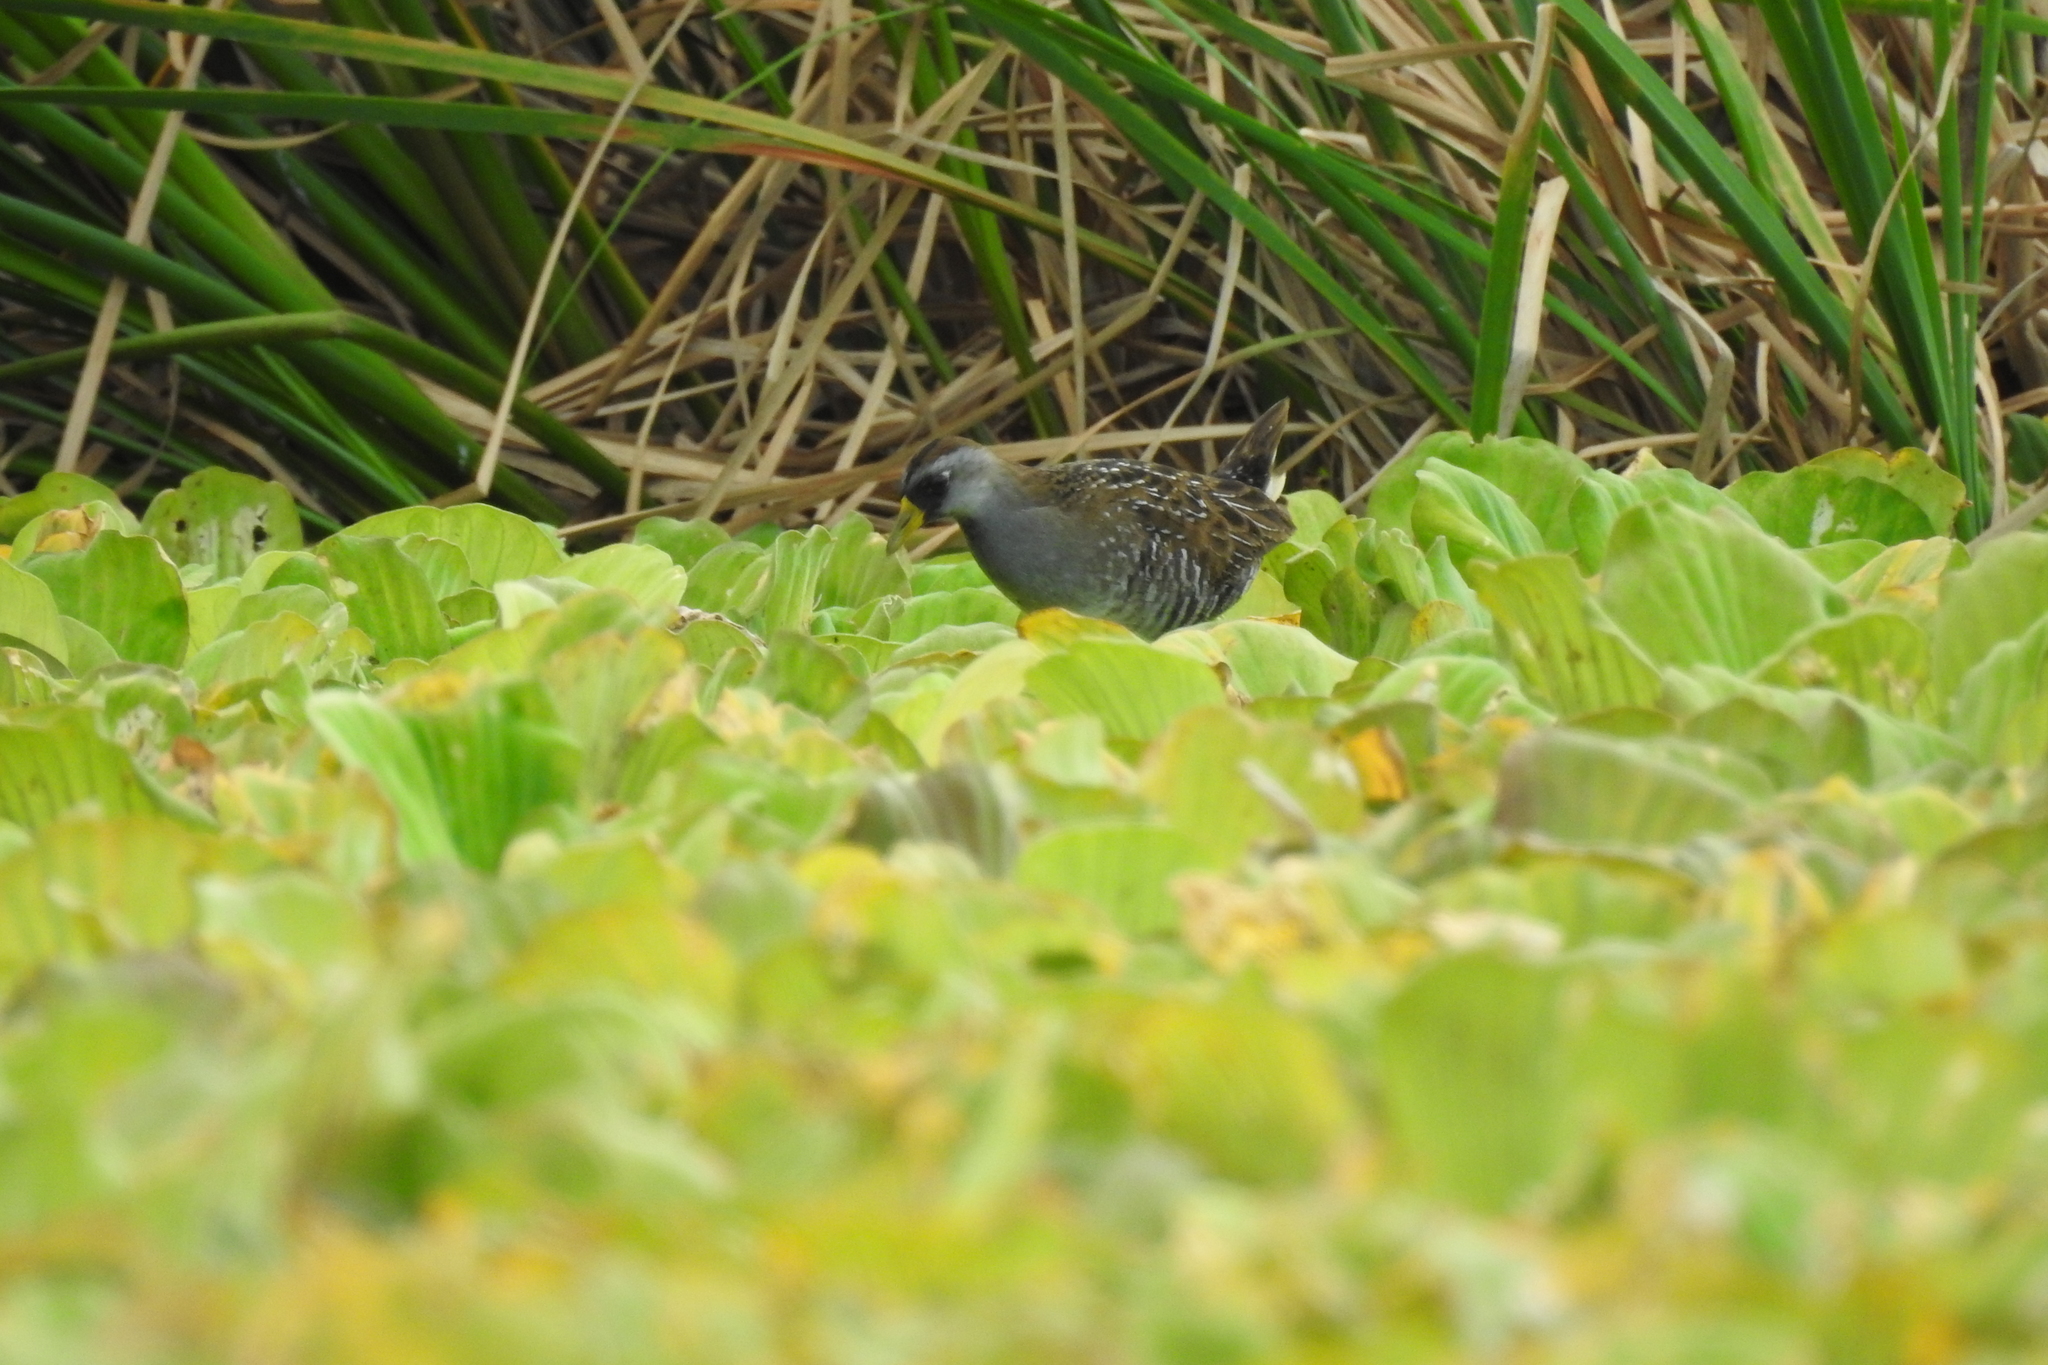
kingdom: Animalia
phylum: Chordata
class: Aves
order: Gruiformes
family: Rallidae
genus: Porzana
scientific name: Porzana carolina
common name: Sora
